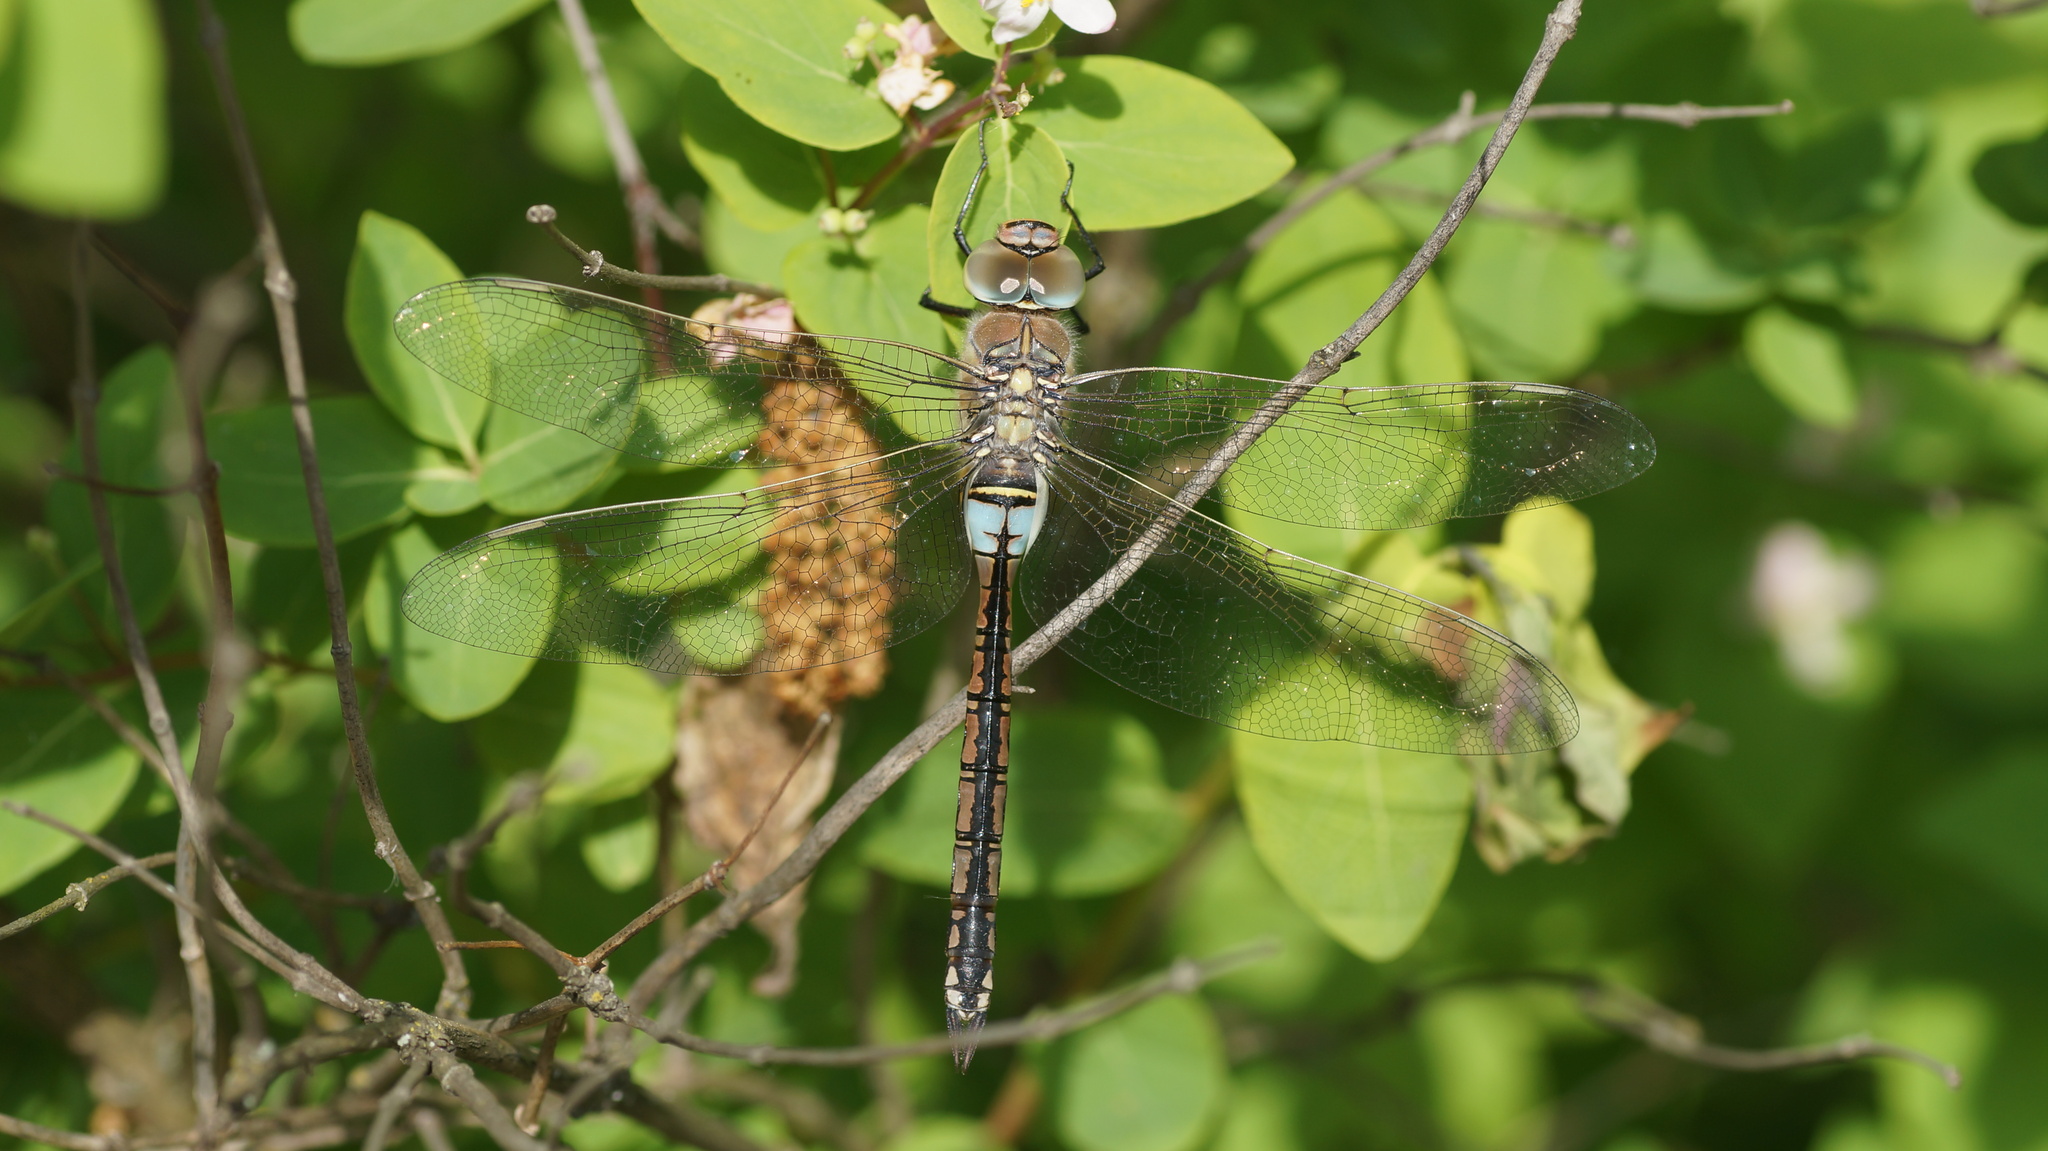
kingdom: Animalia
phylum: Arthropoda
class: Insecta
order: Odonata
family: Aeshnidae
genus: Anax
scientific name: Anax parthenope
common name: Lesser emperor
